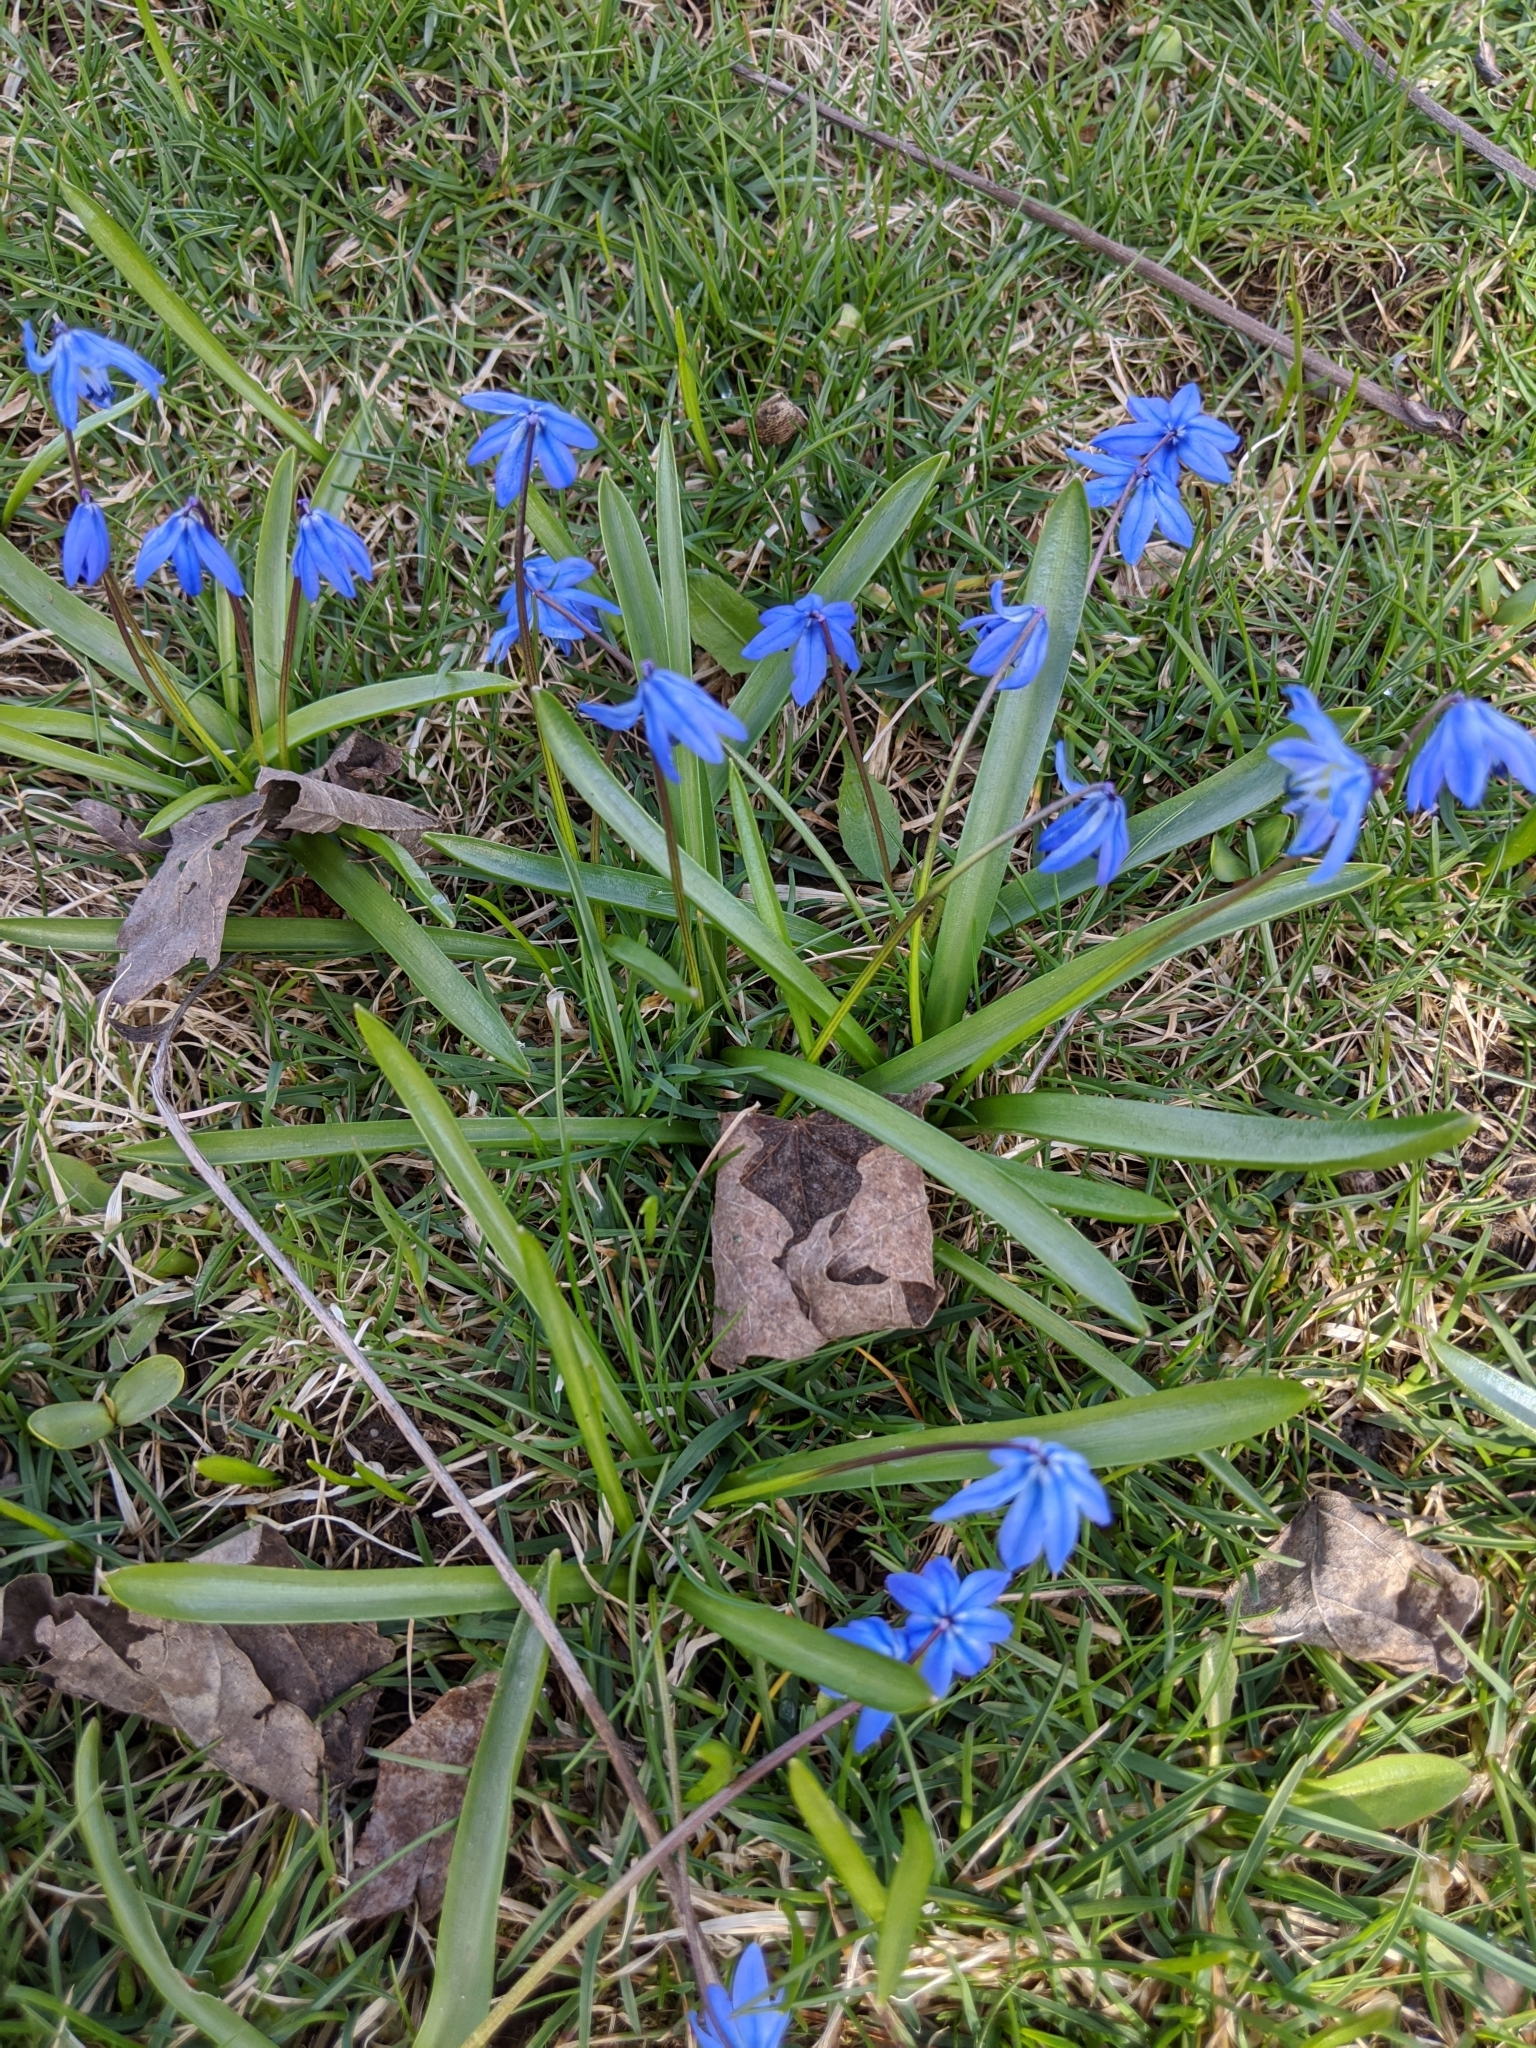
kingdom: Plantae
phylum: Tracheophyta
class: Liliopsida
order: Asparagales
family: Asparagaceae
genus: Scilla
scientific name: Scilla siberica
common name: Siberian squill
